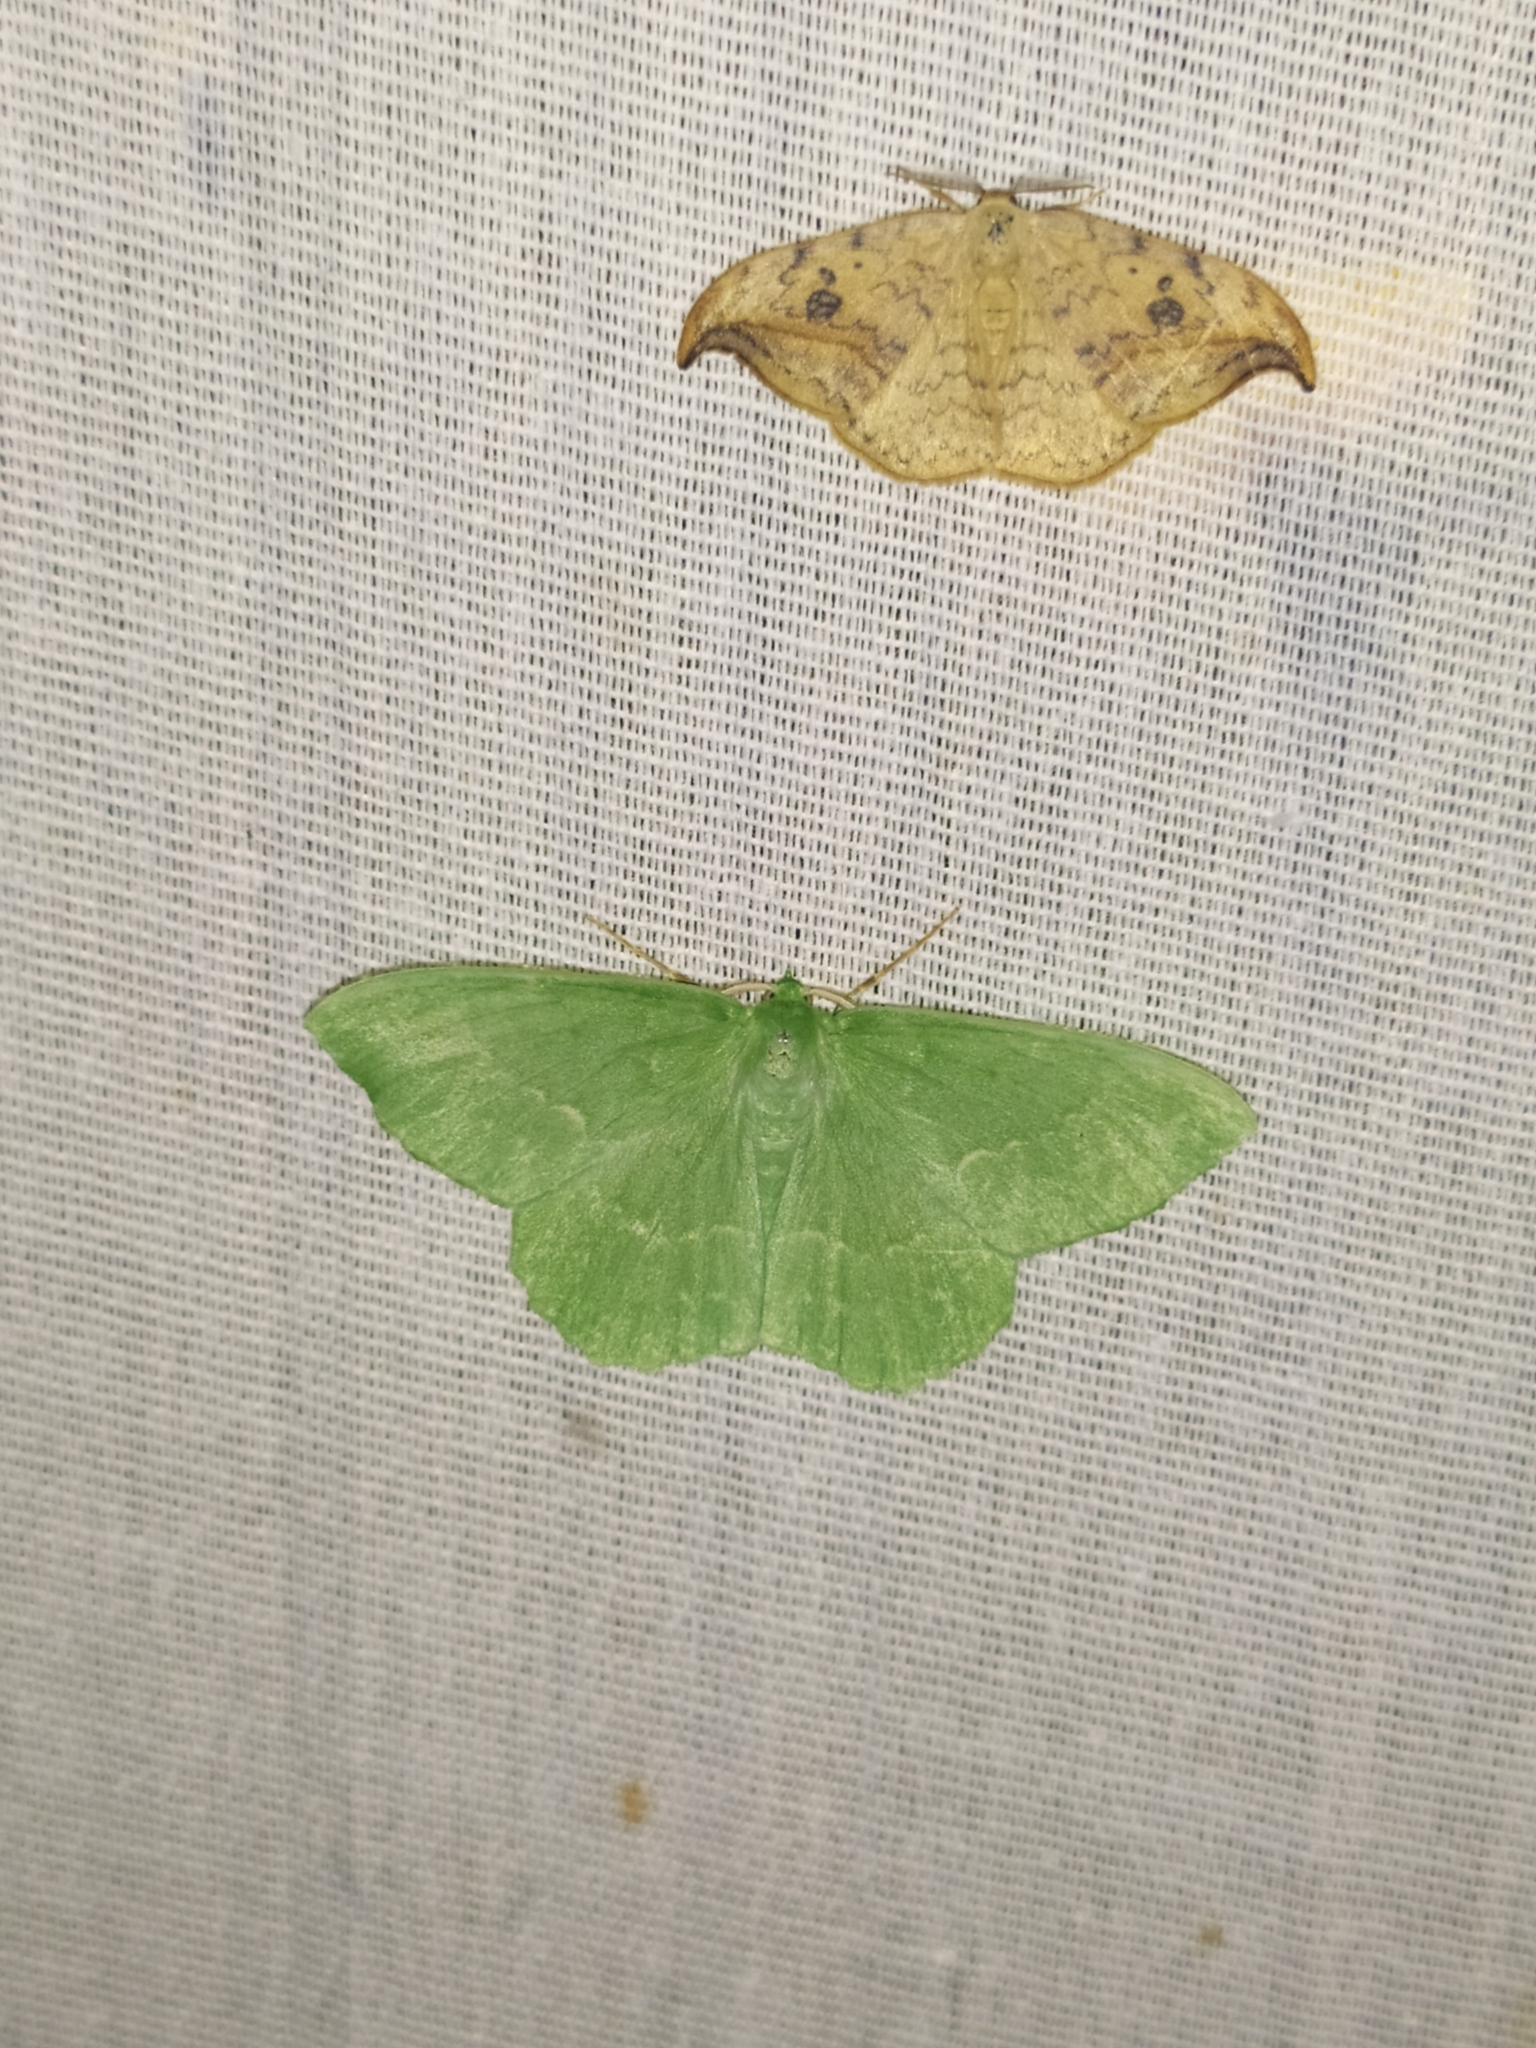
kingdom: Animalia
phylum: Arthropoda
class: Insecta
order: Lepidoptera
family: Geometridae
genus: Geometra
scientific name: Geometra papilionaria
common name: Large emerald
